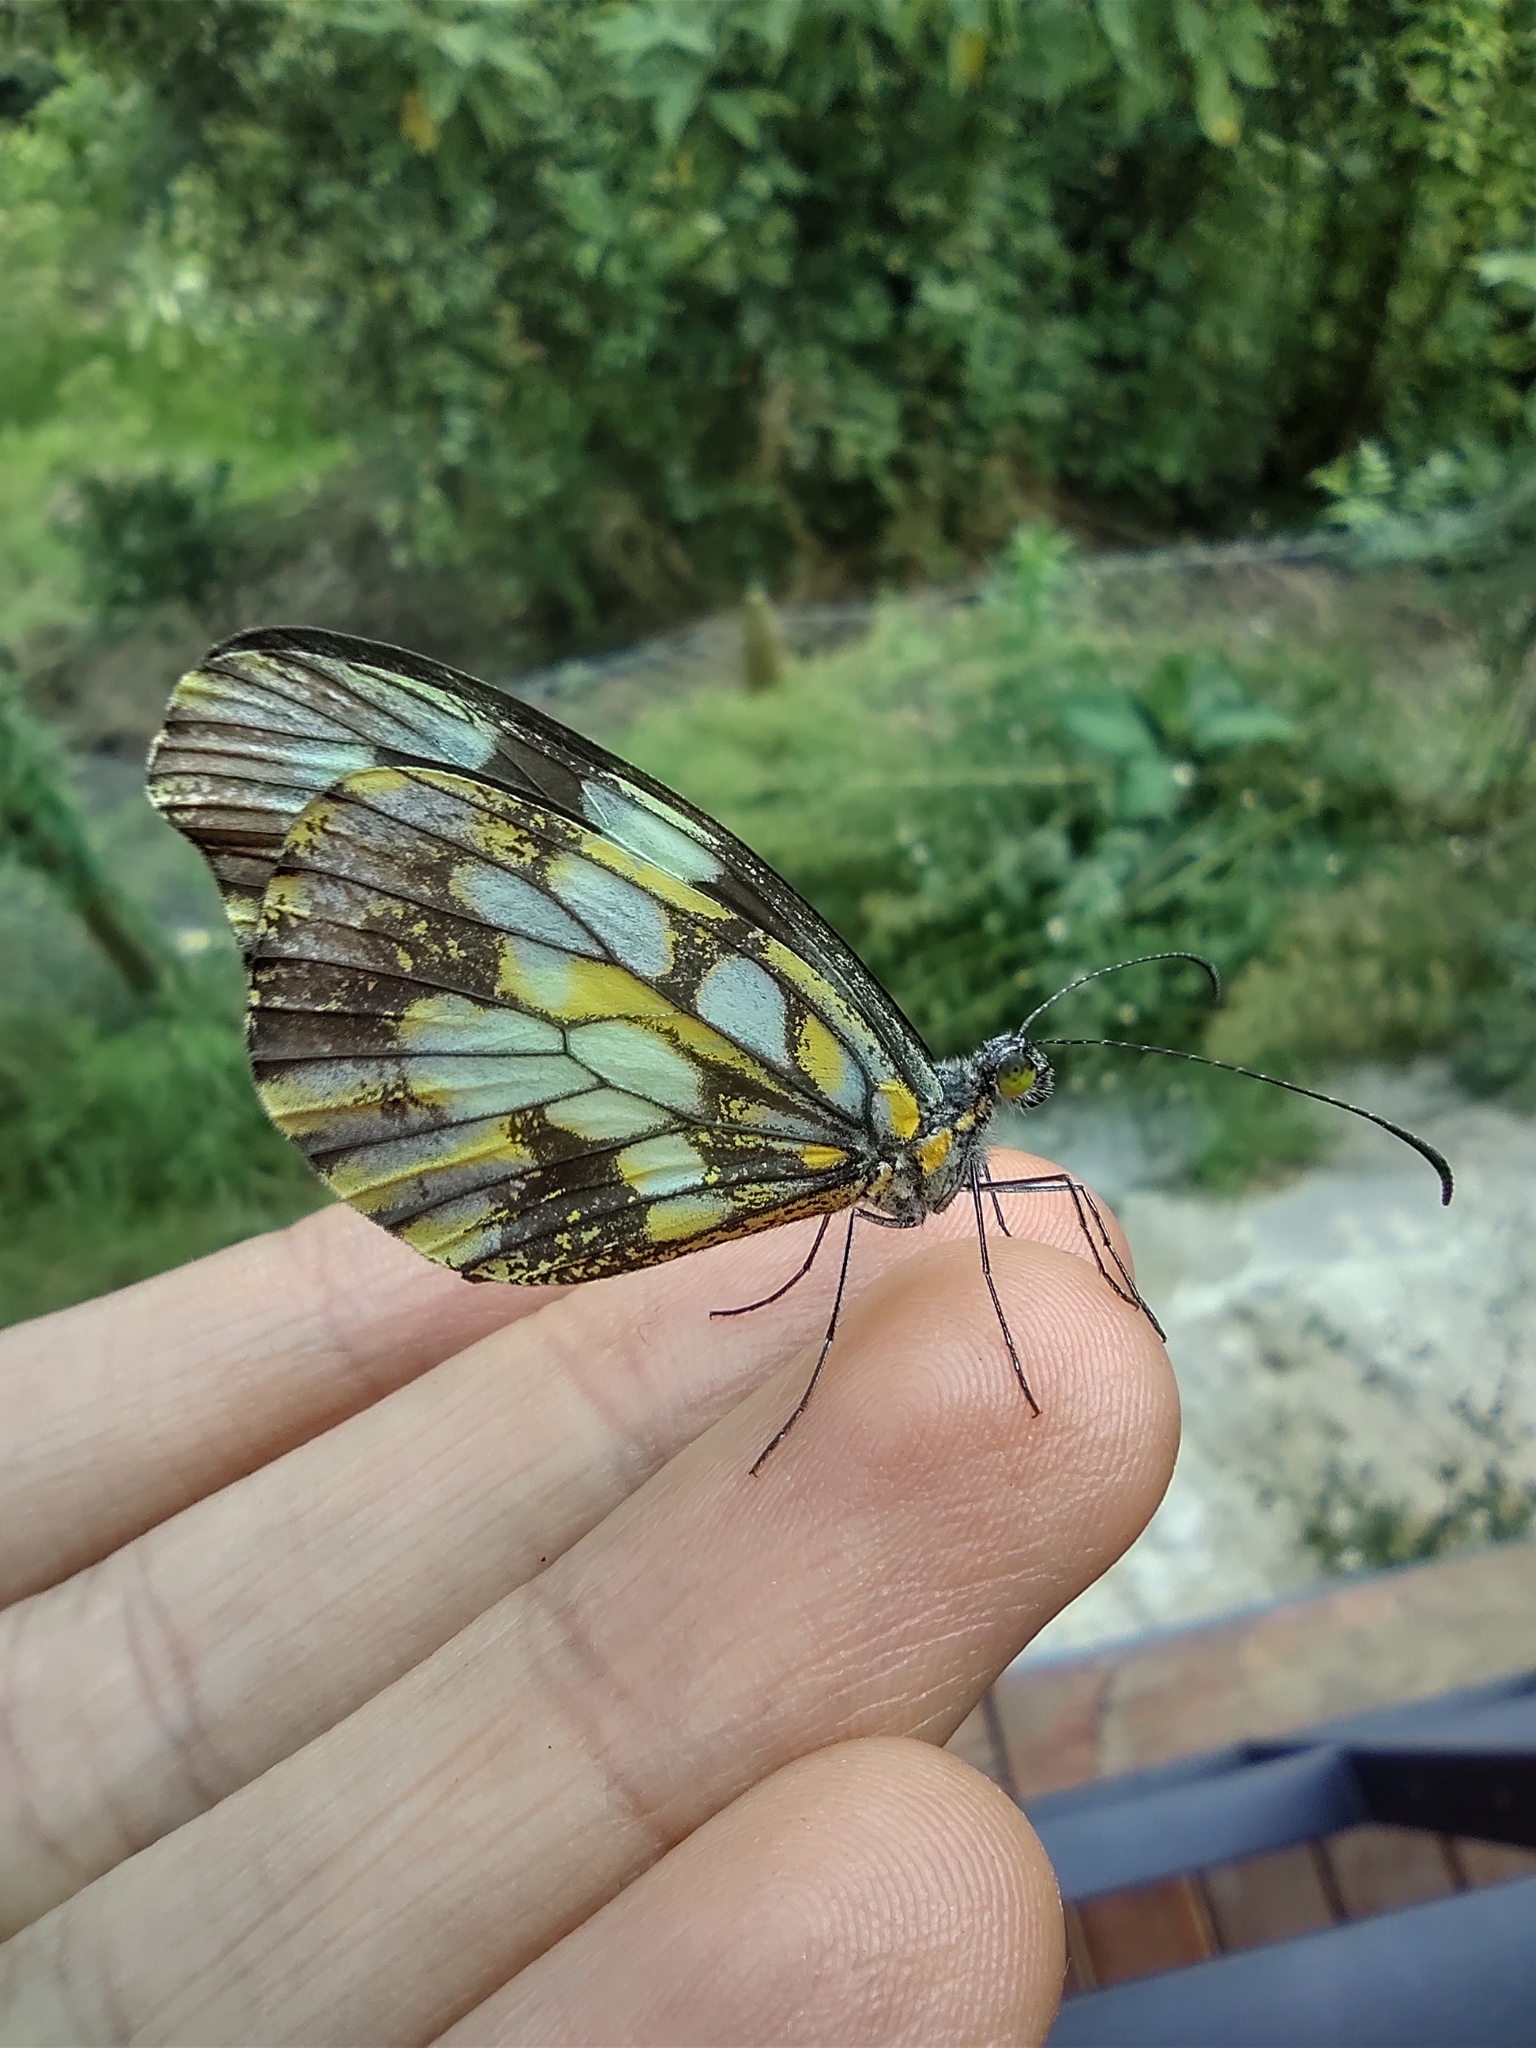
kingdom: Animalia
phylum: Arthropoda
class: Insecta
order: Lepidoptera
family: Pieridae
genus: Dismorphia
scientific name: Dismorphia lewyi
